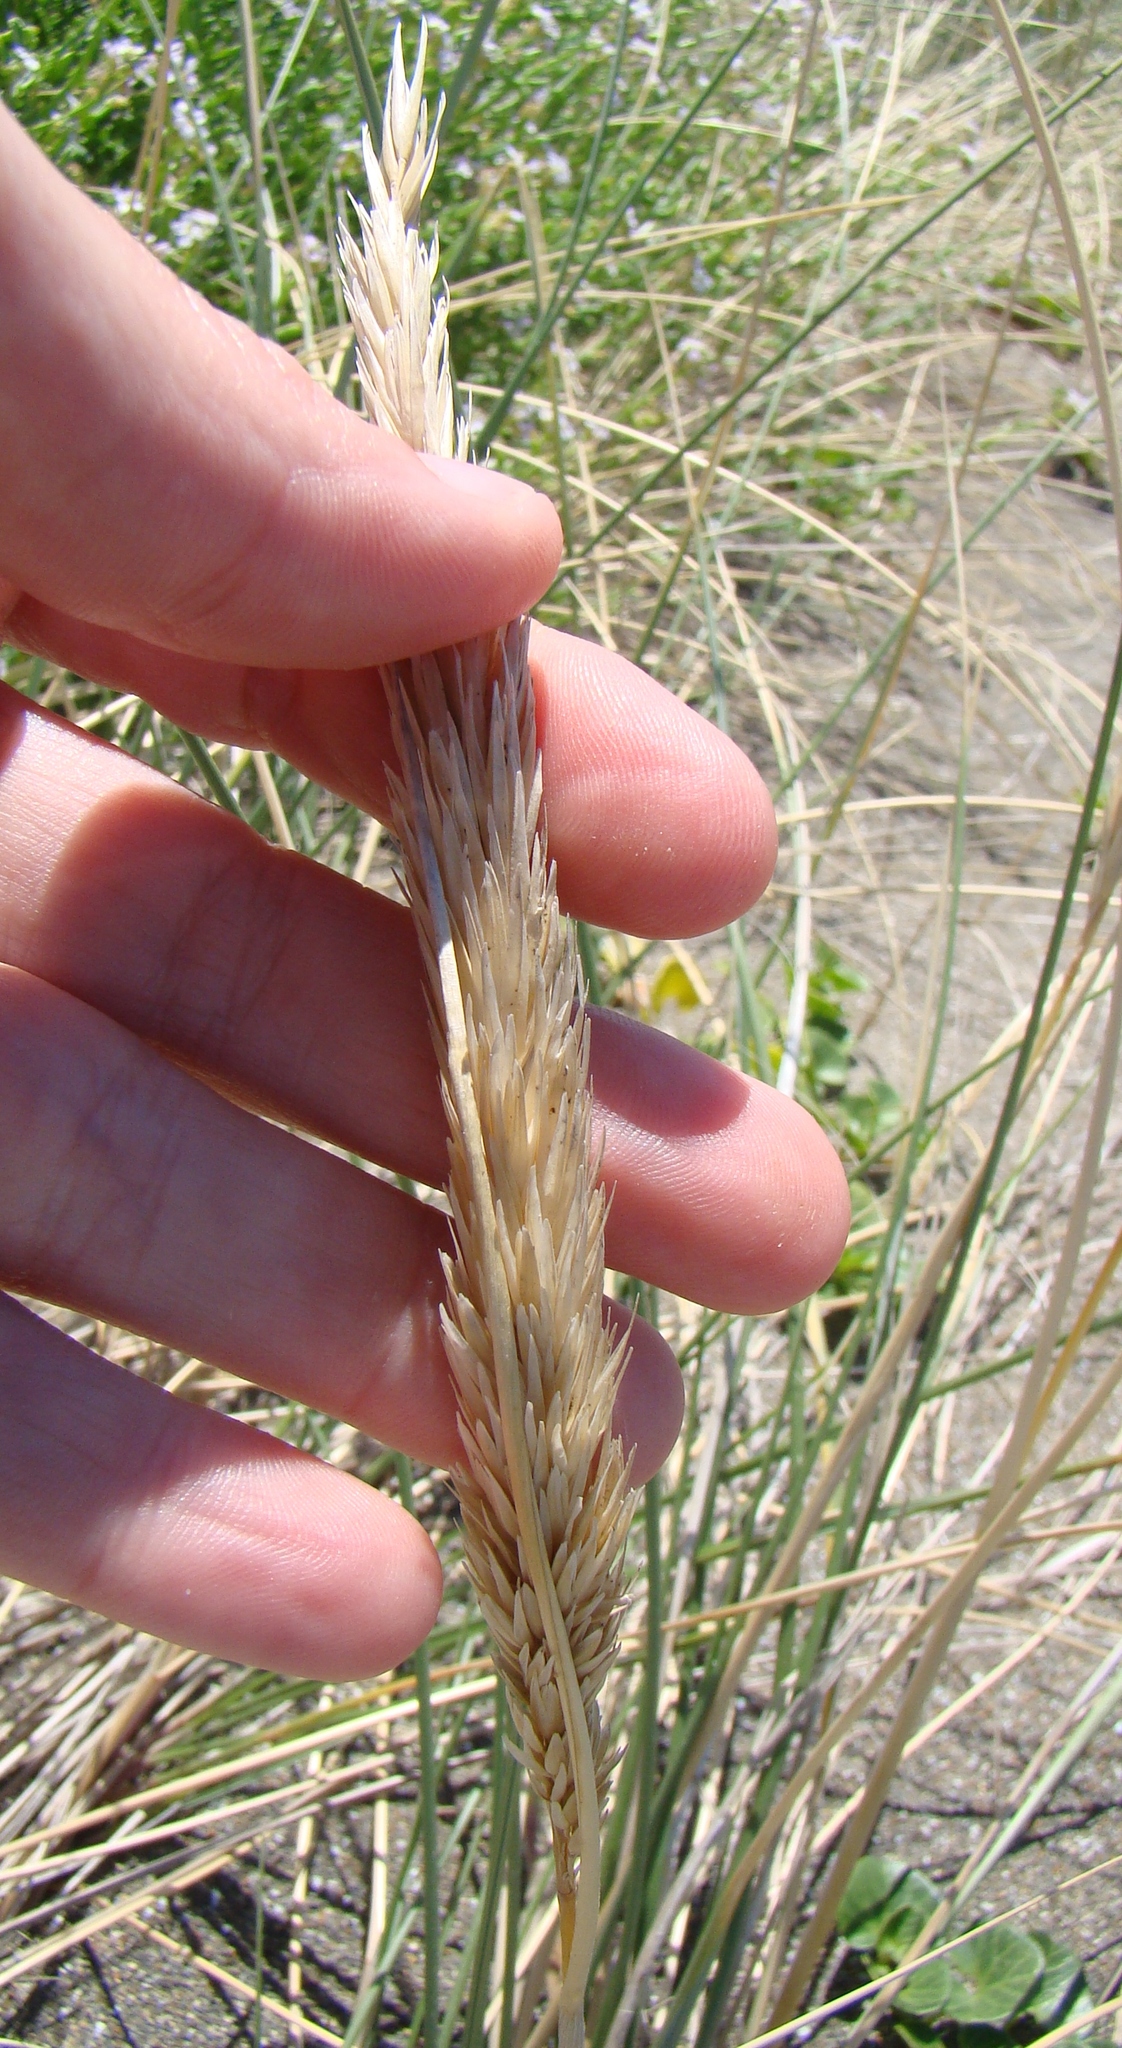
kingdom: Plantae
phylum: Tracheophyta
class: Liliopsida
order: Poales
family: Poaceae
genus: Calamagrostis
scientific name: Calamagrostis arenaria
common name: European beachgrass
